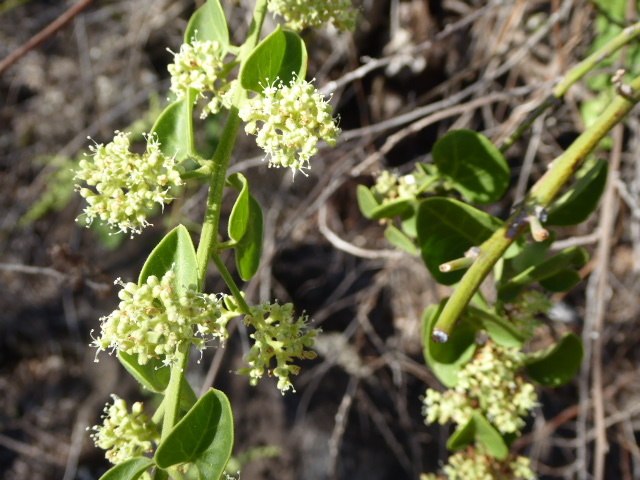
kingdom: Plantae
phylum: Tracheophyta
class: Magnoliopsida
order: Caryophyllales
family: Nyctaginaceae
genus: Cryptocarpus
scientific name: Cryptocarpus pyriformis
